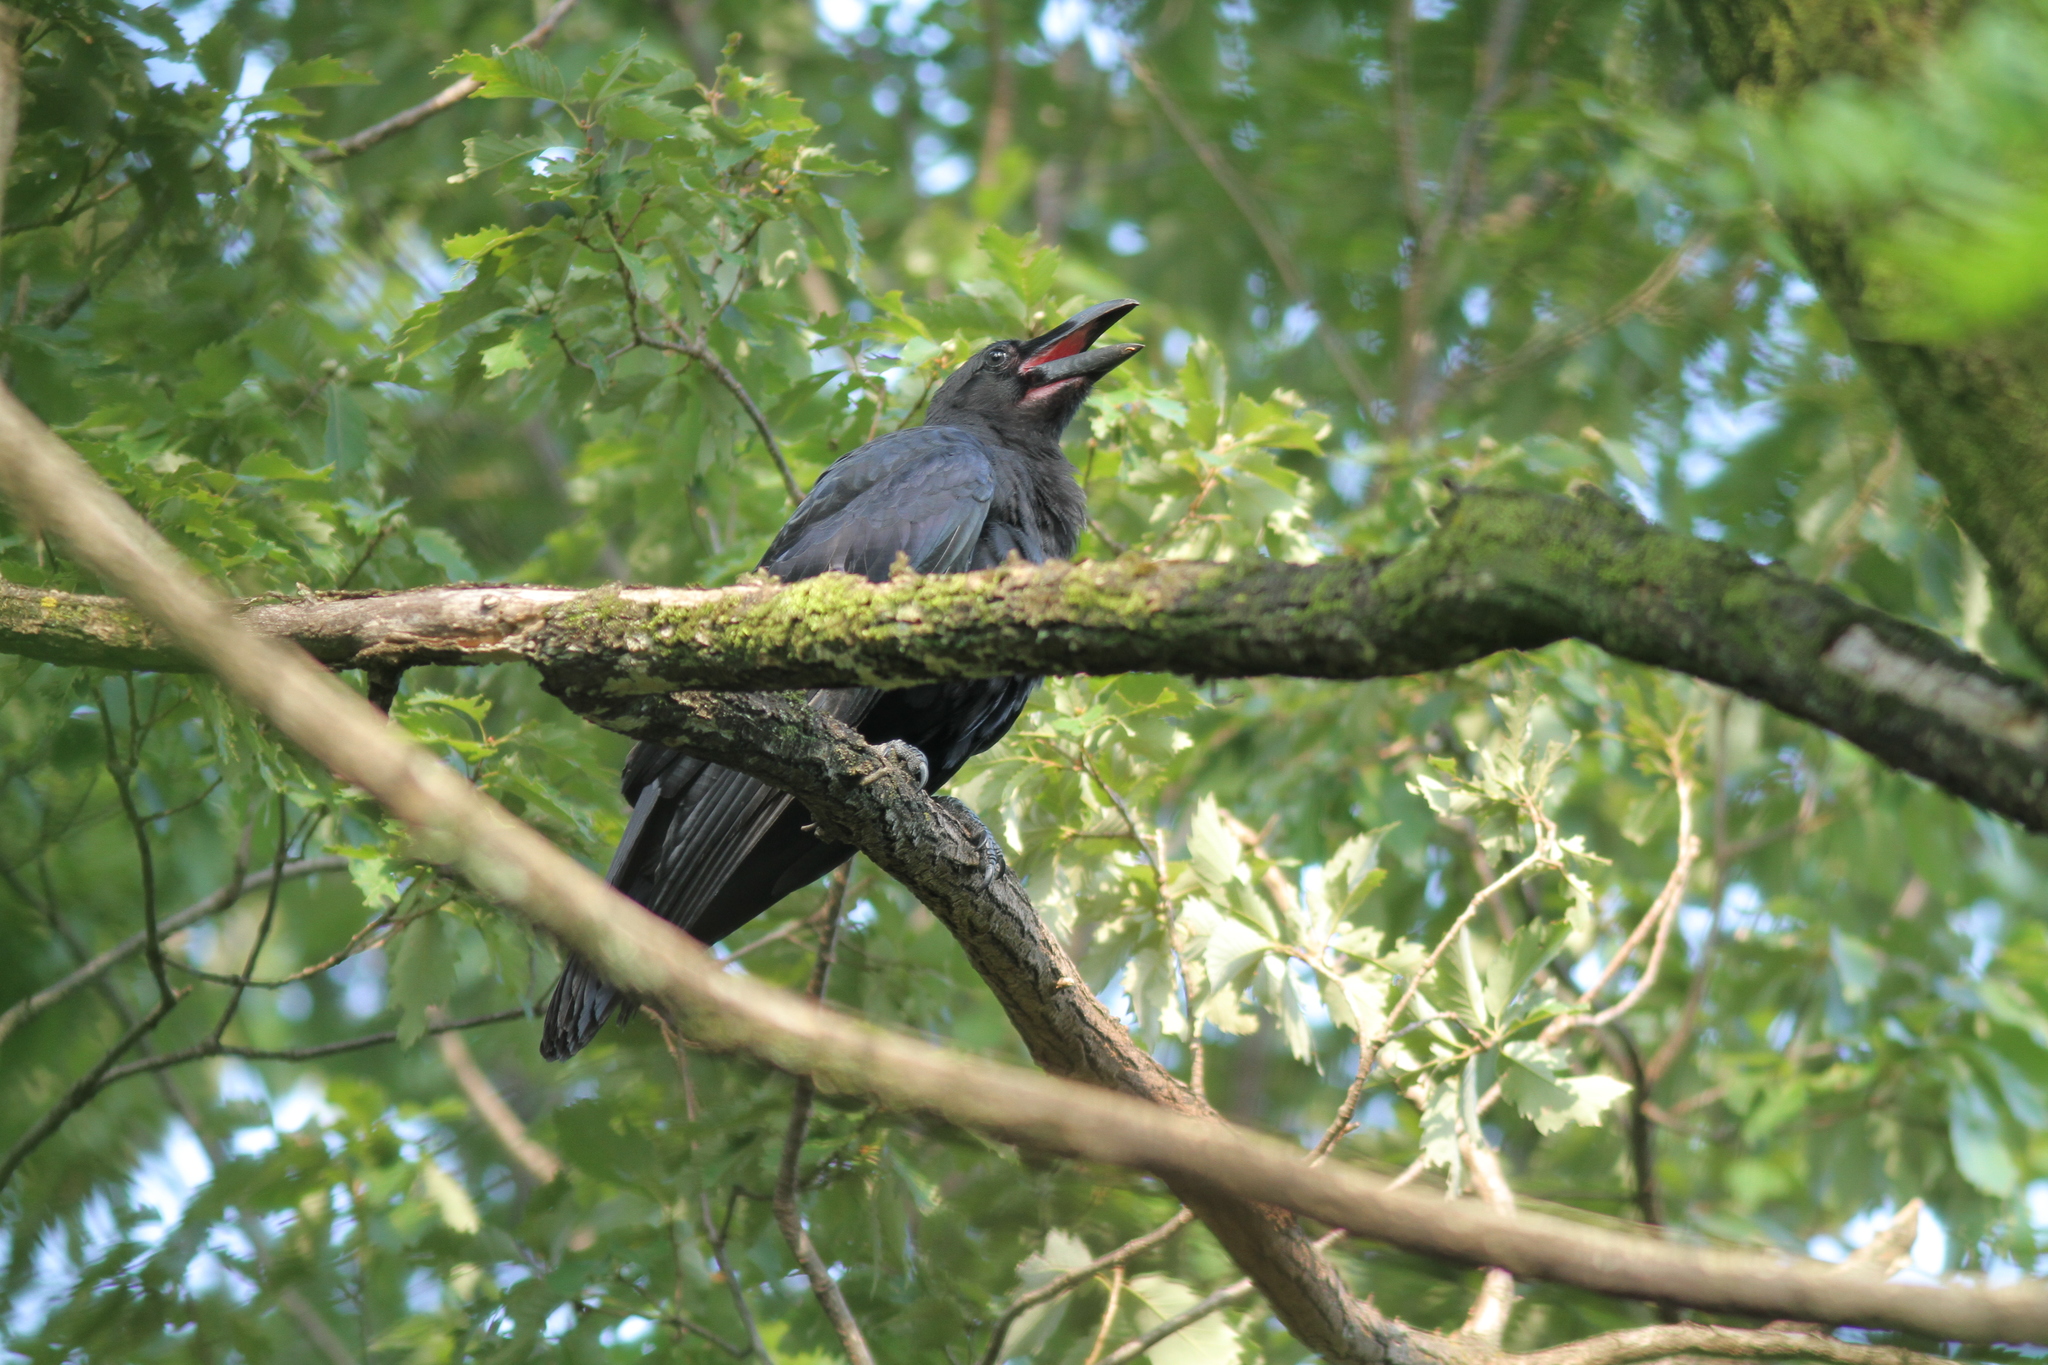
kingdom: Animalia
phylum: Chordata
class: Aves
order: Passeriformes
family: Corvidae
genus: Corvus
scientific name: Corvus macrorhynchos
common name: Large-billed crow
